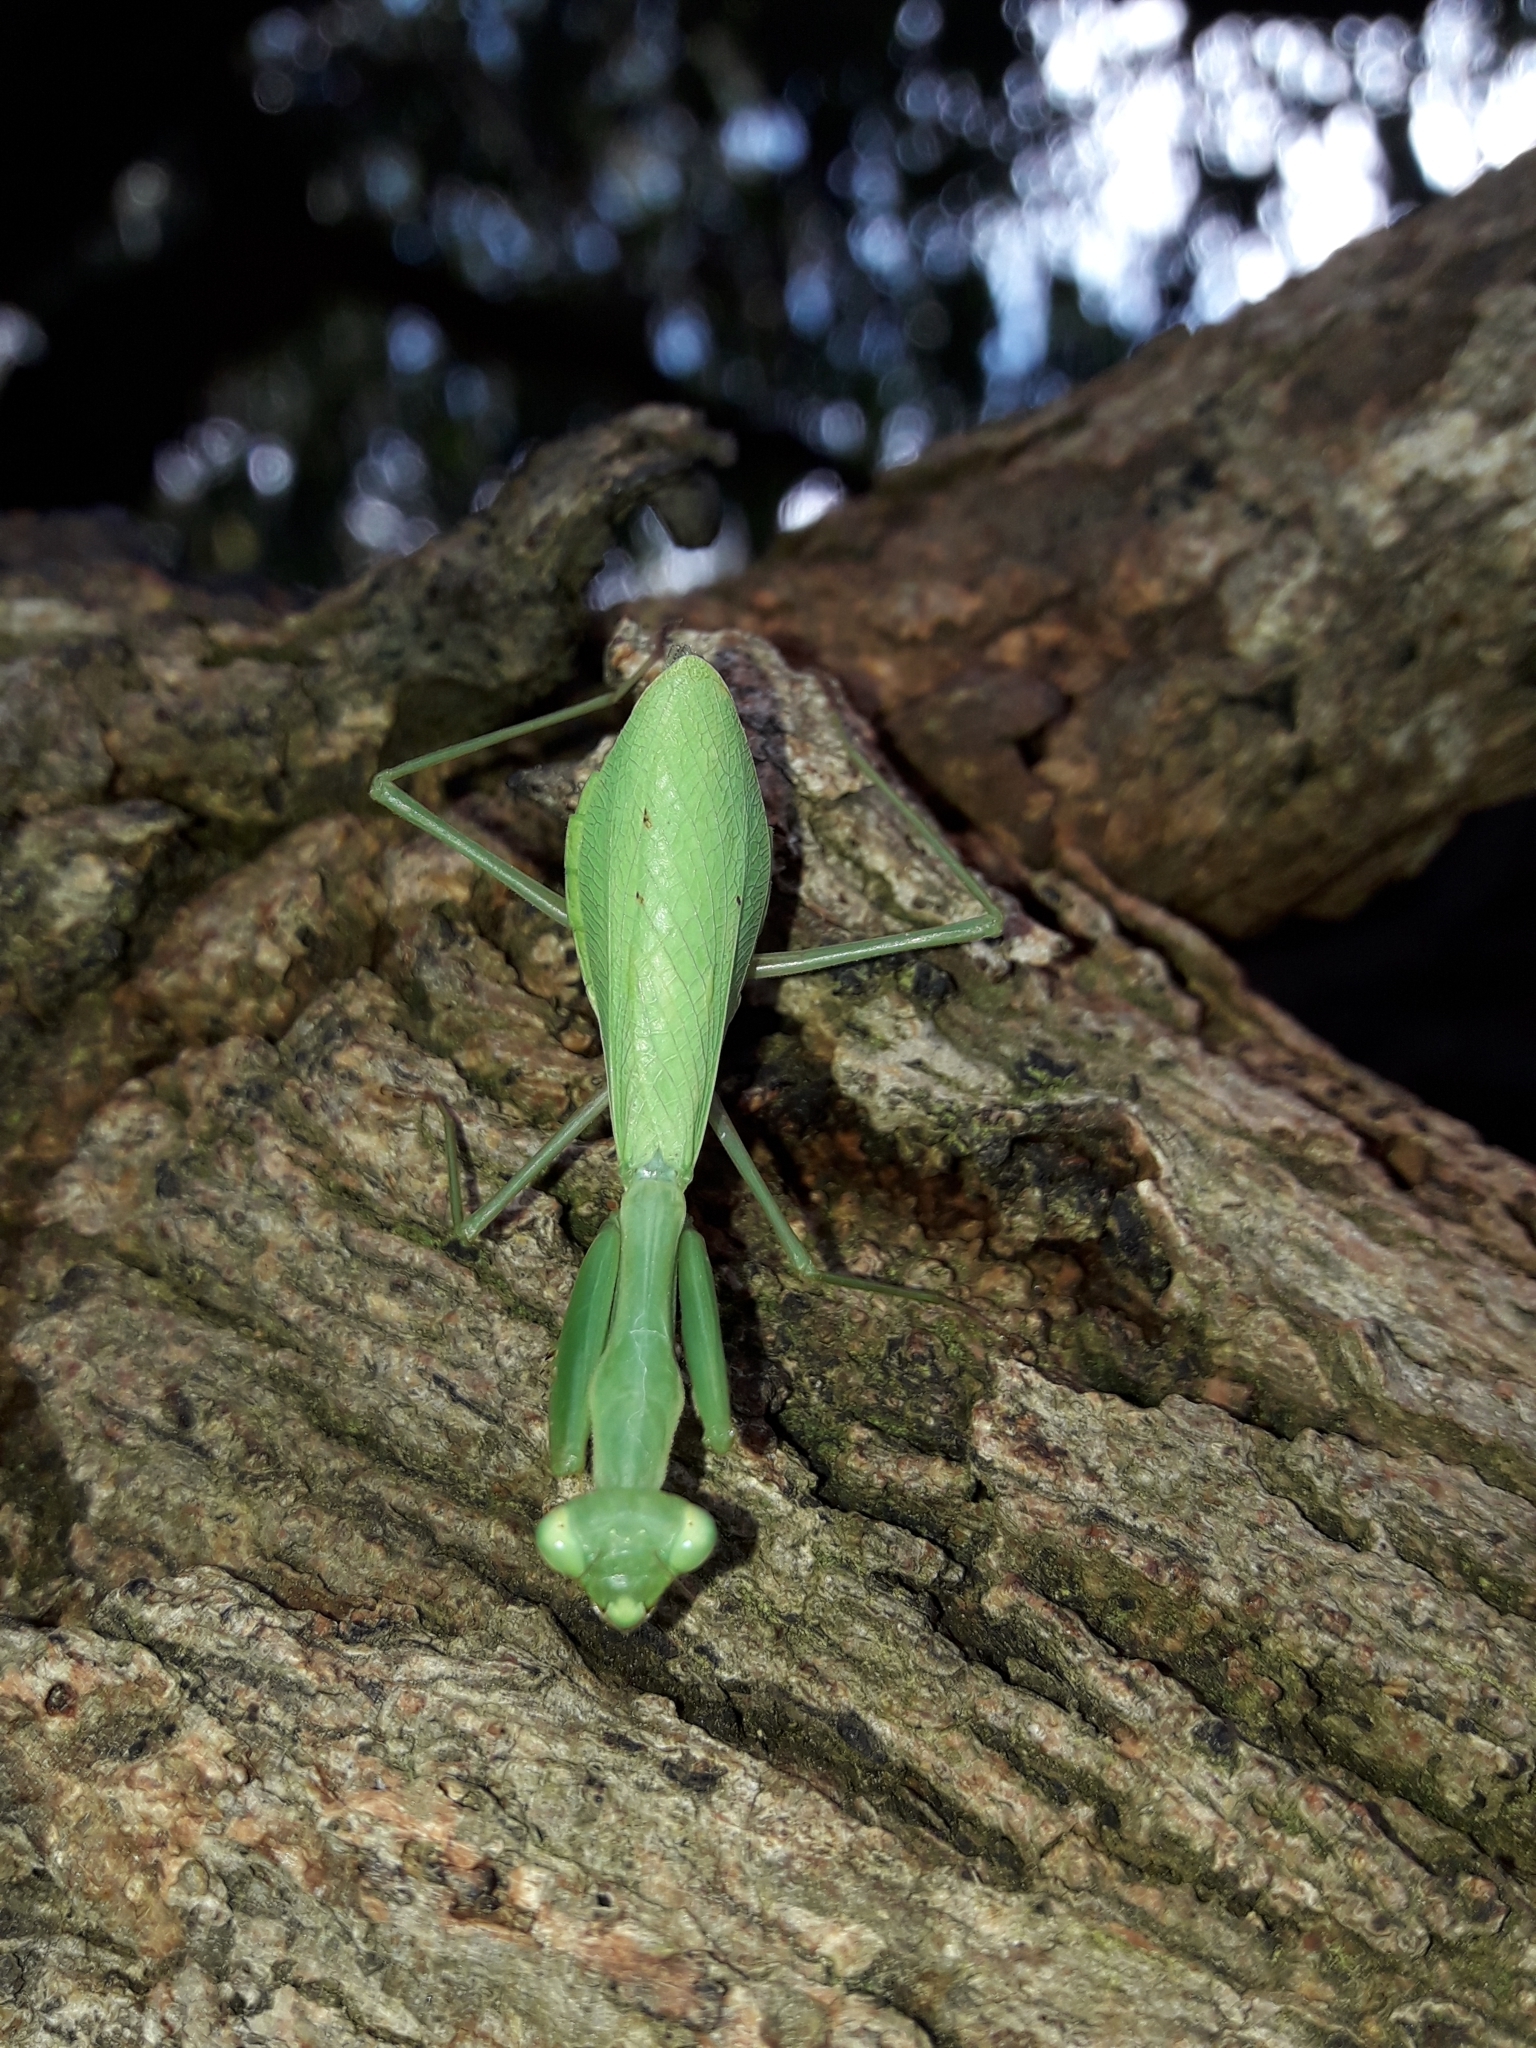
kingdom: Animalia
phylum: Arthropoda
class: Insecta
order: Mantodea
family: Miomantidae
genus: Miomantis
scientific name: Miomantis caffra
